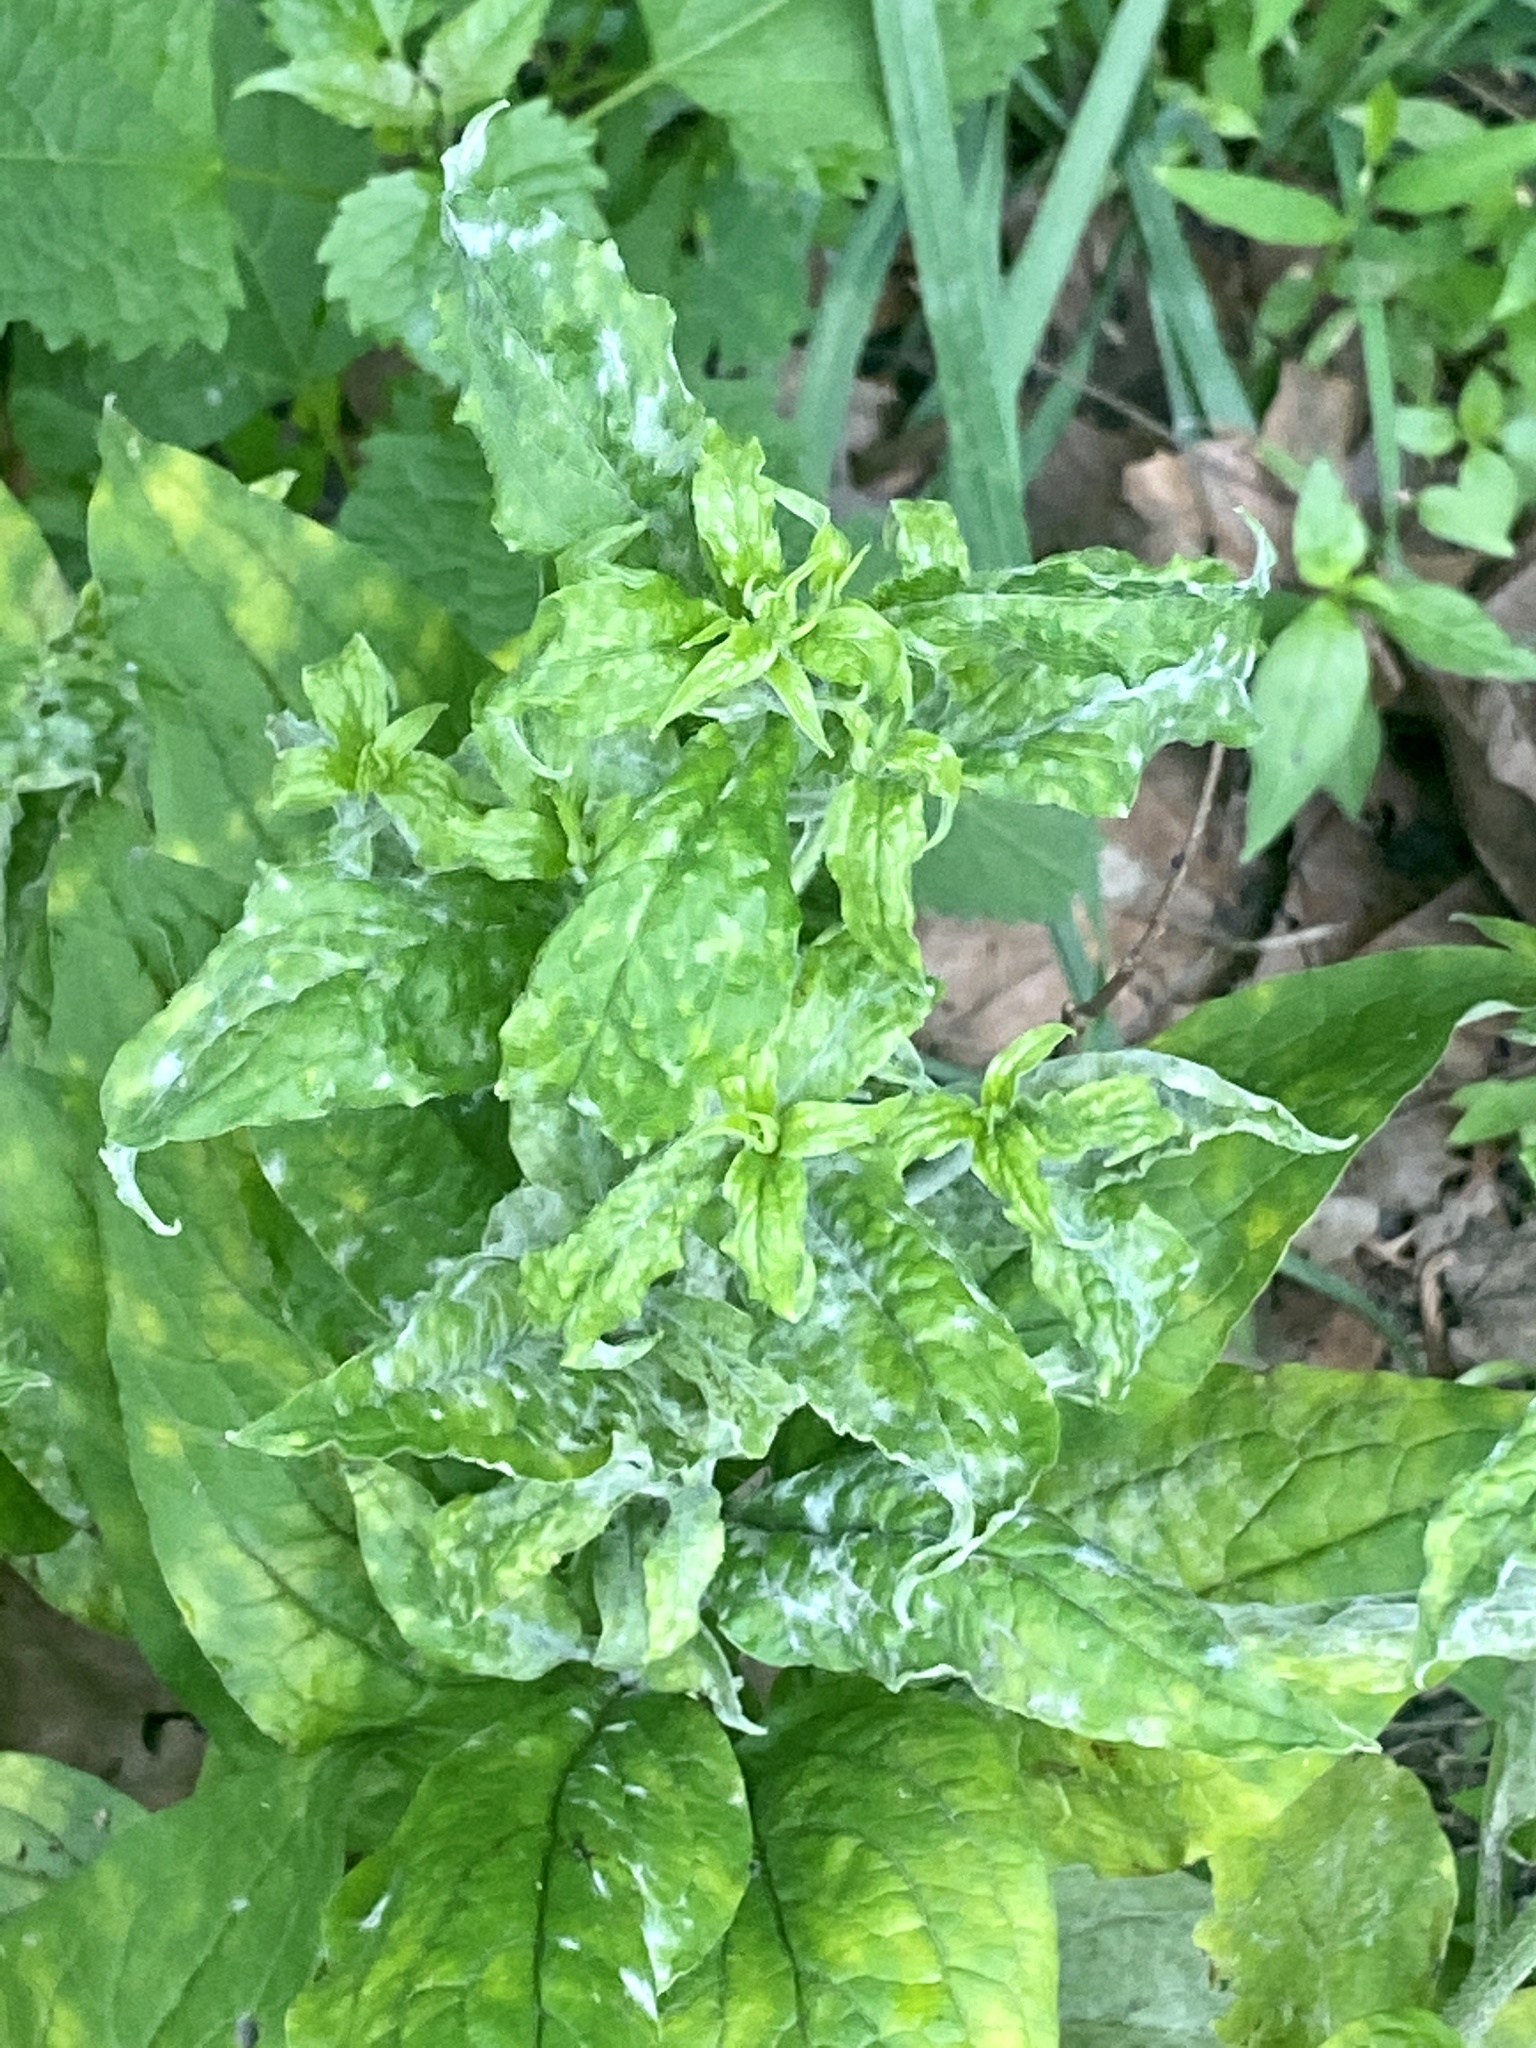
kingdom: Plantae
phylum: Tracheophyta
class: Magnoliopsida
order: Boraginales
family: Boraginaceae
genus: Hackelia
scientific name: Hackelia virginiana
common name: Beggar's-lice
